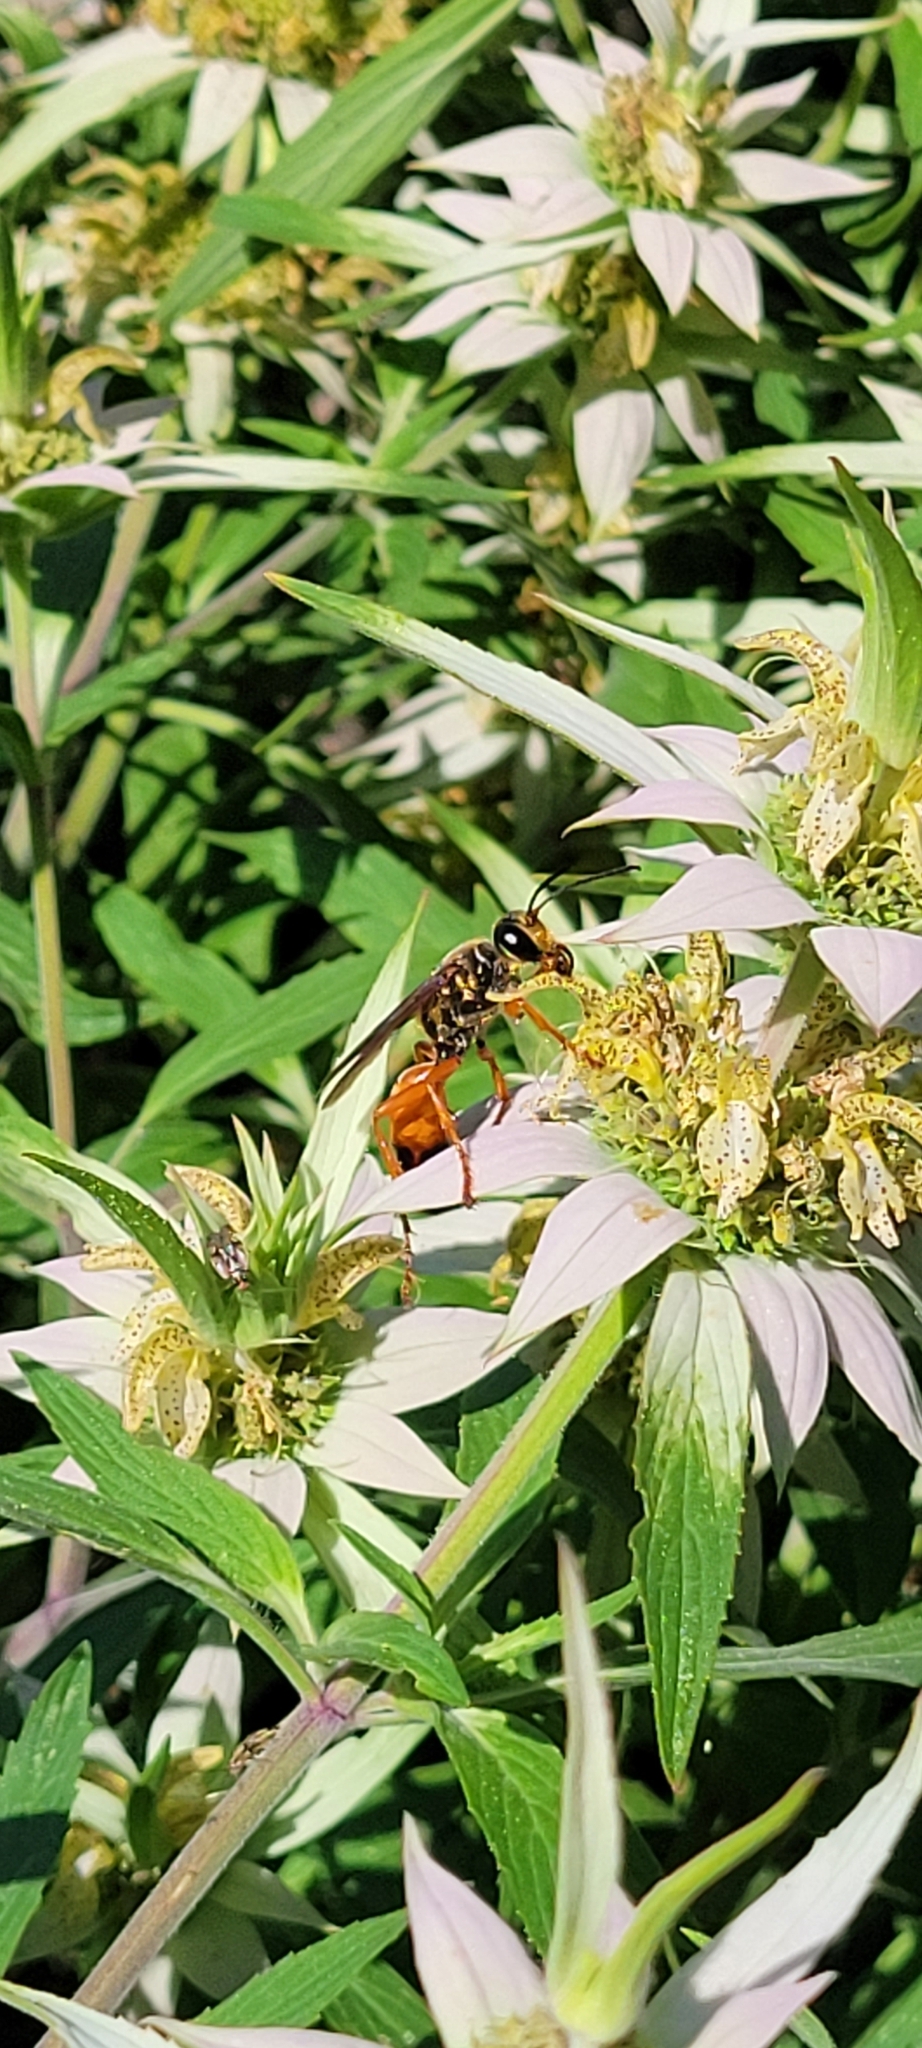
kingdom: Animalia
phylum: Arthropoda
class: Insecta
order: Hymenoptera
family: Sphecidae
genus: Sphex
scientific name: Sphex ichneumoneus
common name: Great golden digger wasp
